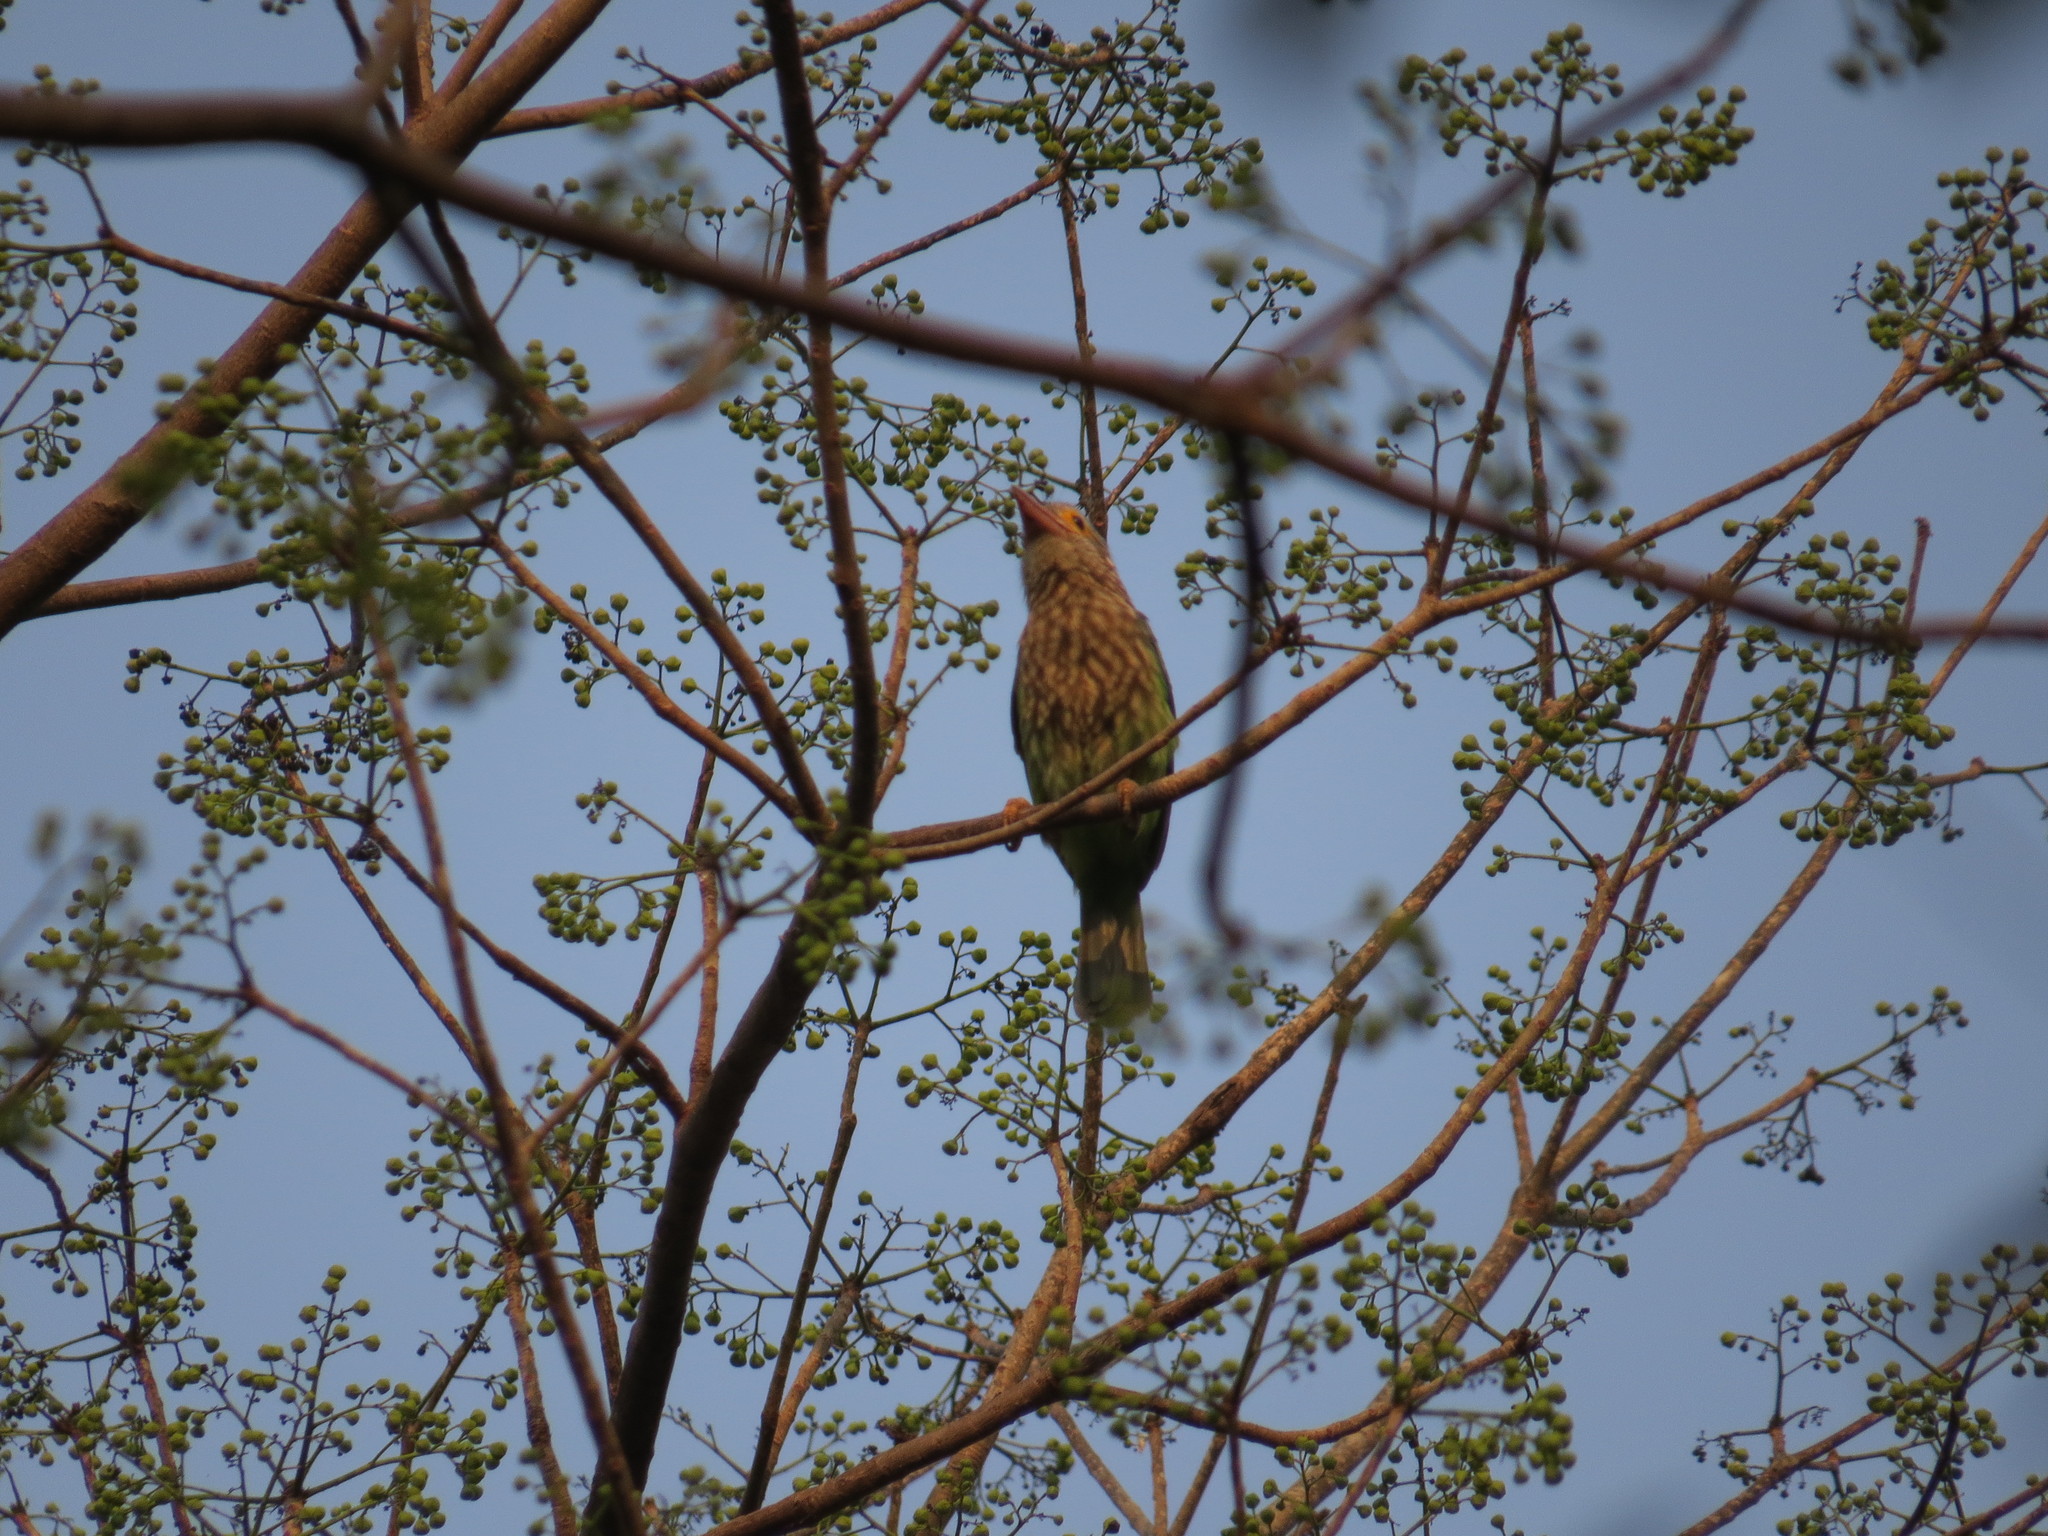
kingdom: Animalia
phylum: Chordata
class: Aves
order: Piciformes
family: Megalaimidae
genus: Psilopogon
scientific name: Psilopogon lineatus
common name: Lineated barbet
